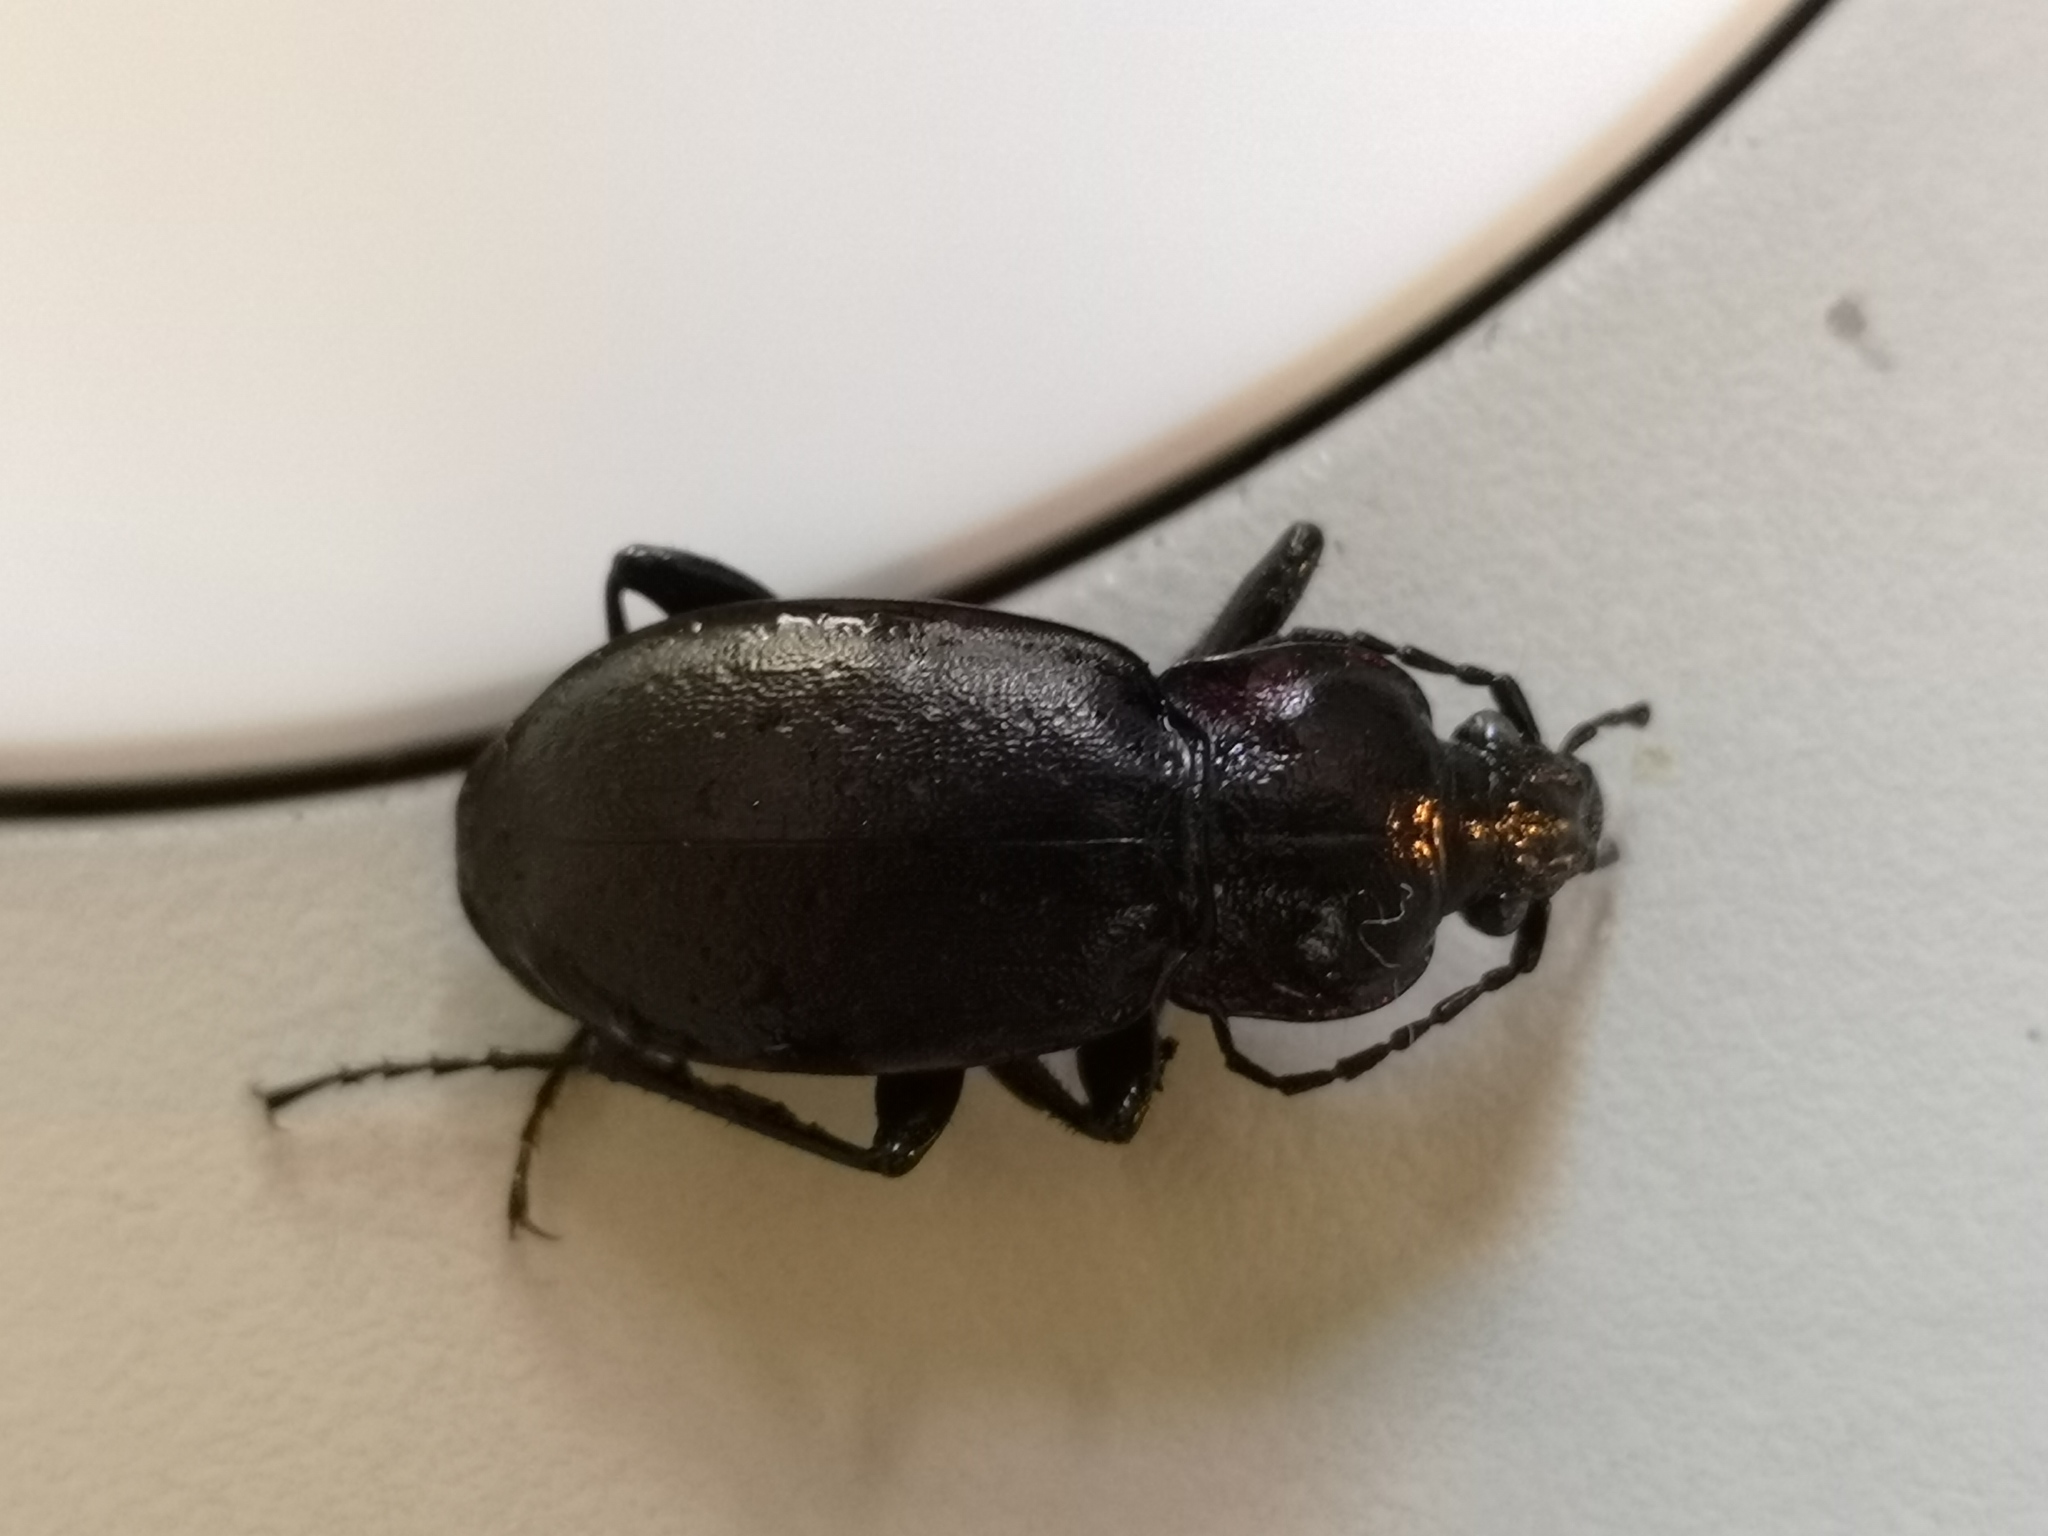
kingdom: Animalia
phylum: Arthropoda
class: Insecta
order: Coleoptera
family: Carabidae
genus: Carabus
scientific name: Carabus nemoralis
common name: European ground beetle
